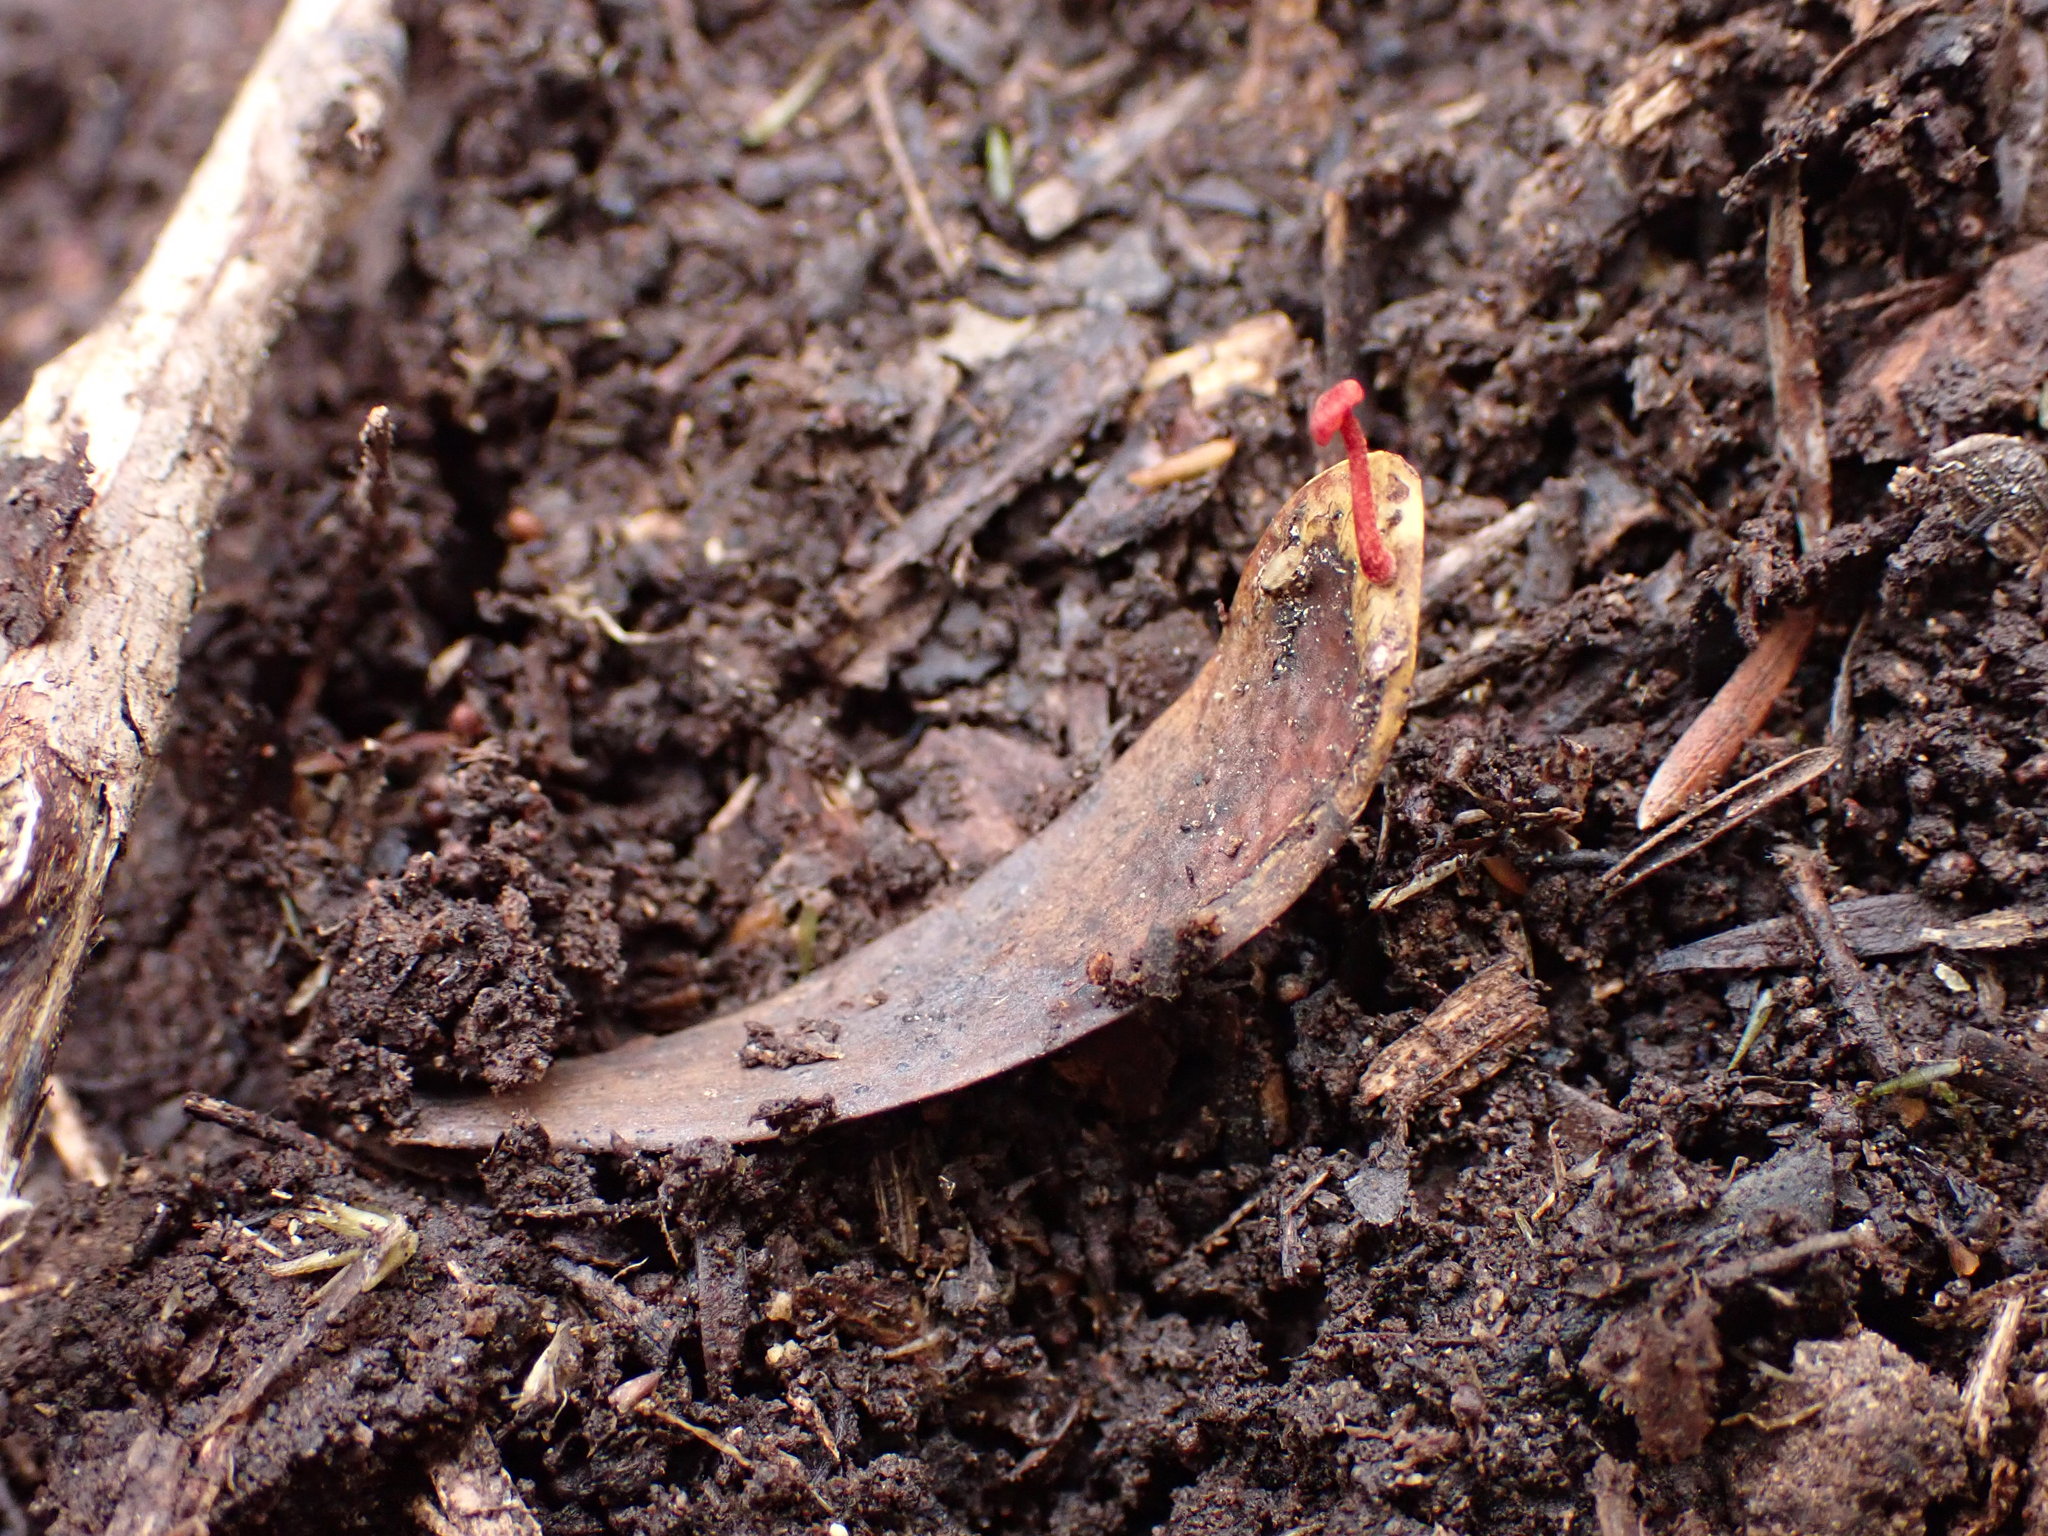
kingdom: Fungi
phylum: Basidiomycota
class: Agaricomycetes
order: Agaricales
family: Mycenaceae
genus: Cruentomycena
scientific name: Cruentomycena viscidocruenta
